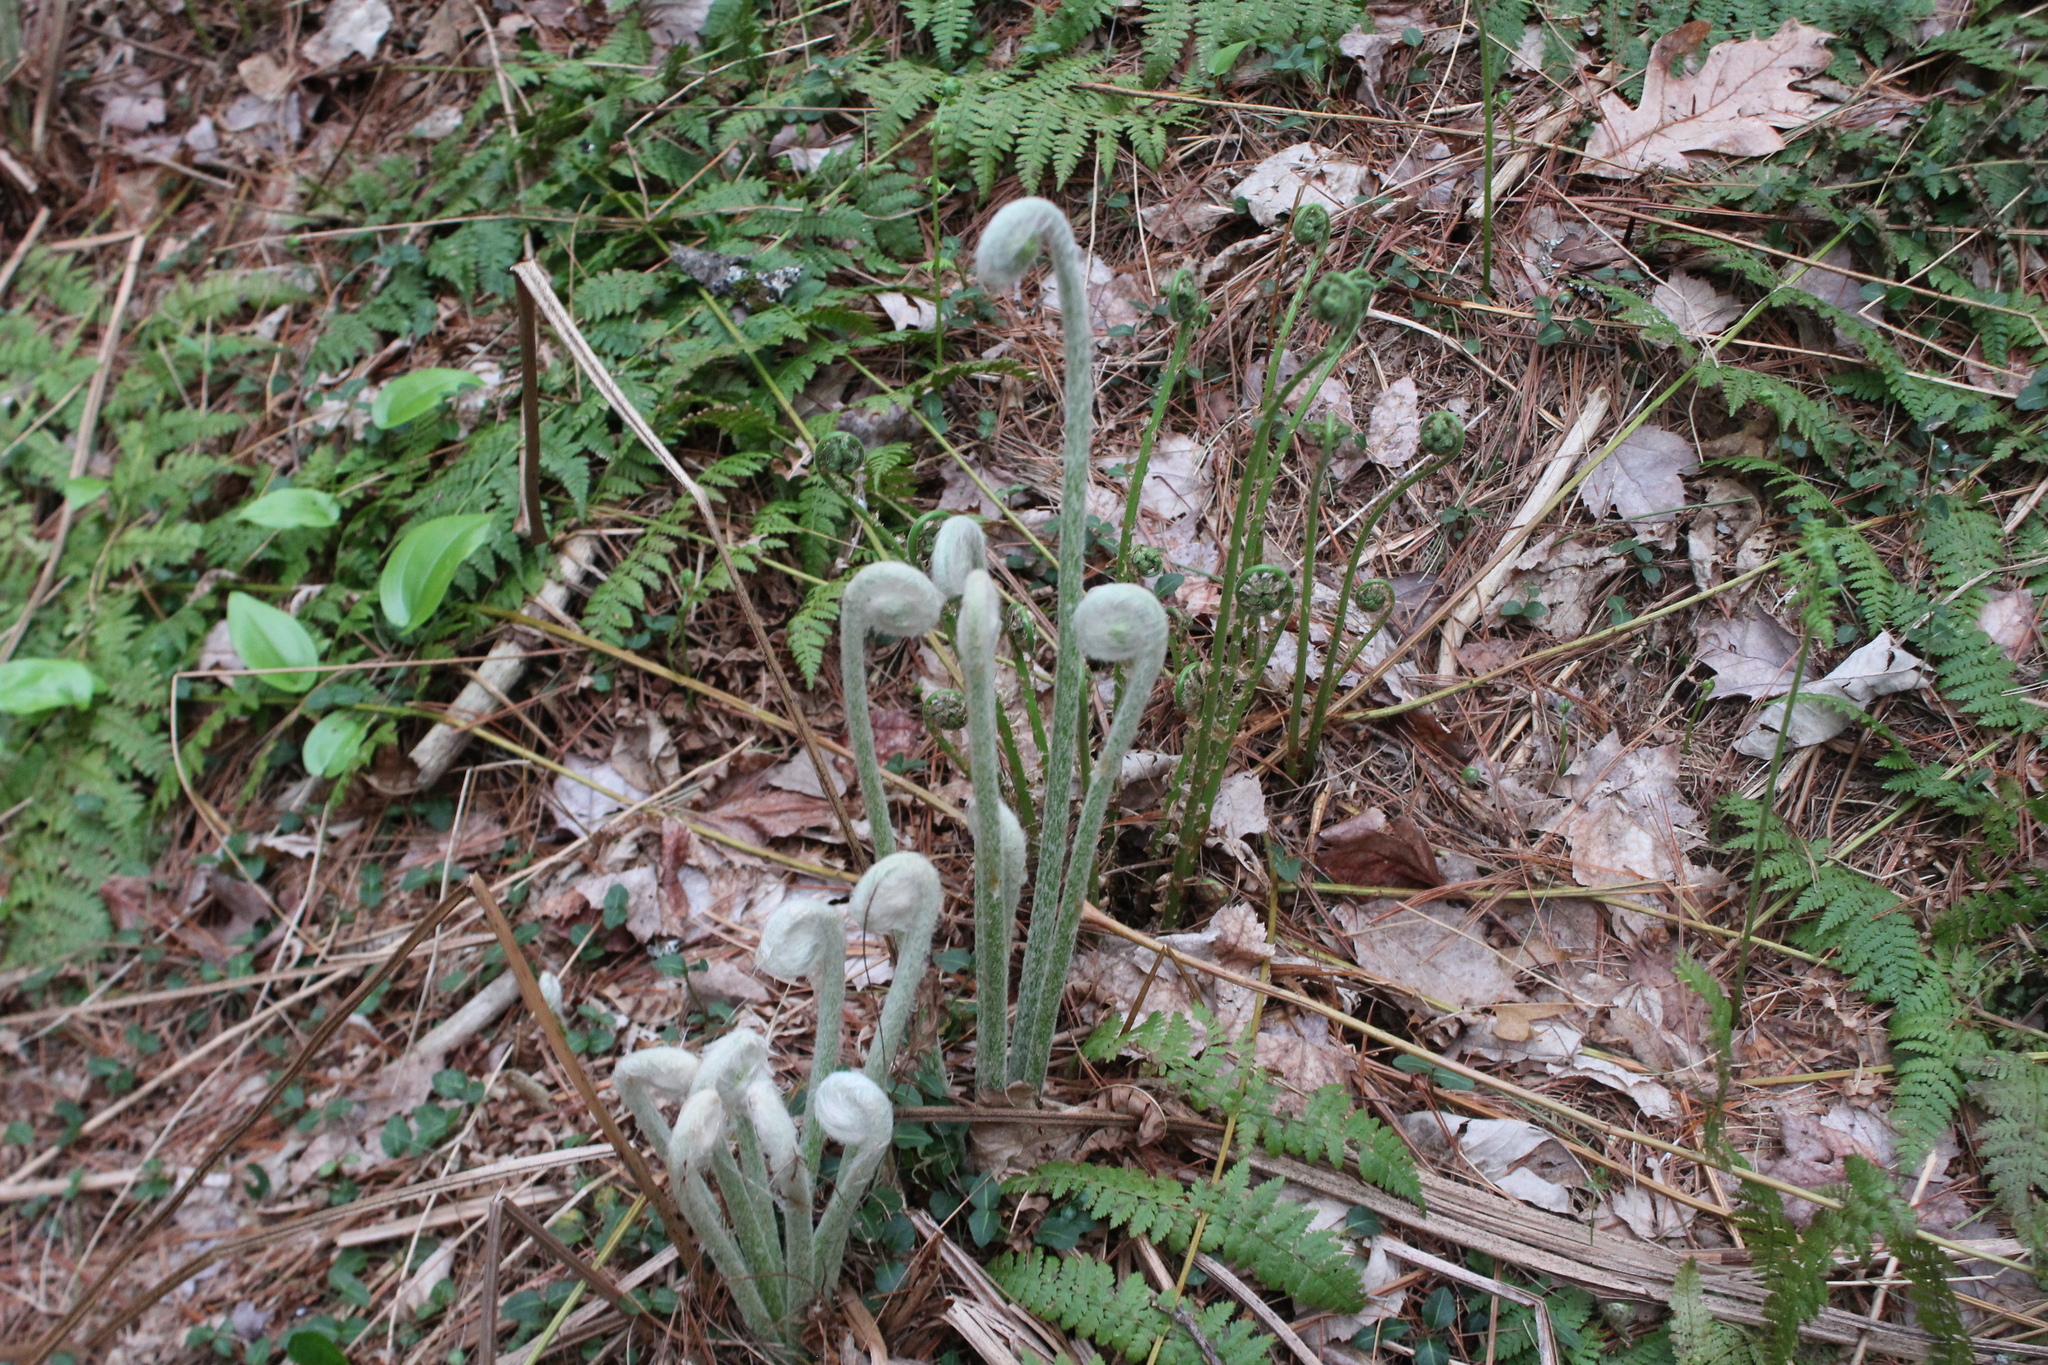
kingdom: Plantae
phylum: Tracheophyta
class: Polypodiopsida
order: Osmundales
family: Osmundaceae
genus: Osmundastrum
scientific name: Osmundastrum cinnamomeum
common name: Cinnamon fern
